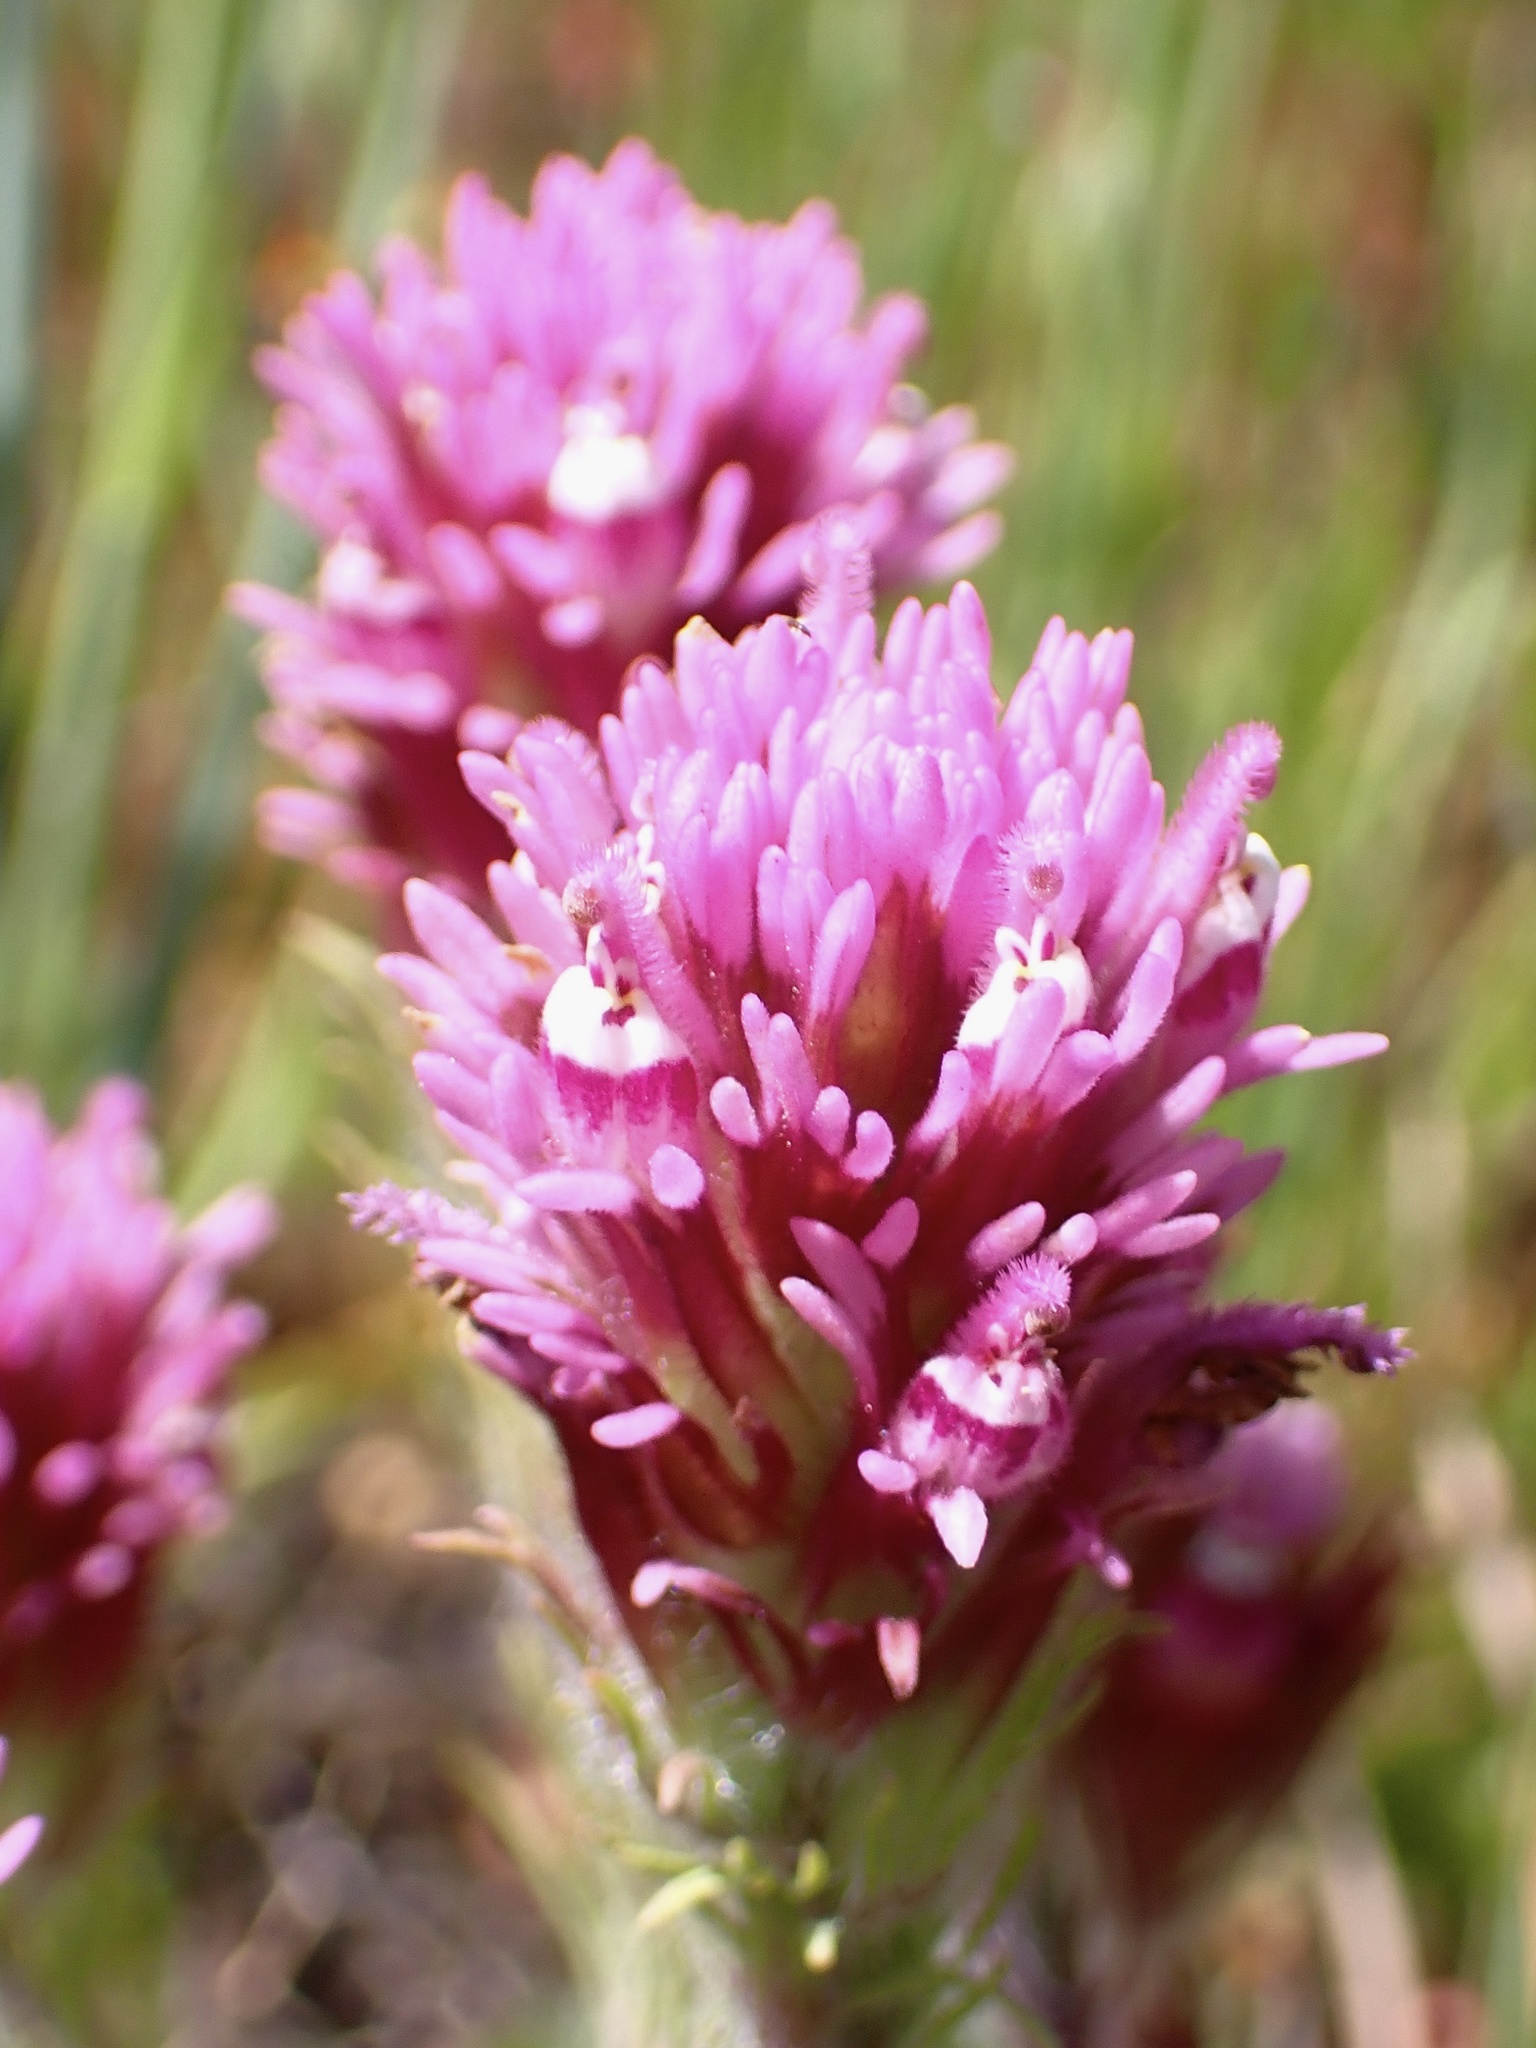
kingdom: Plantae
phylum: Tracheophyta
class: Magnoliopsida
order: Lamiales
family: Orobanchaceae
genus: Castilleja
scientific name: Castilleja exserta
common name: Purple owl-clover
